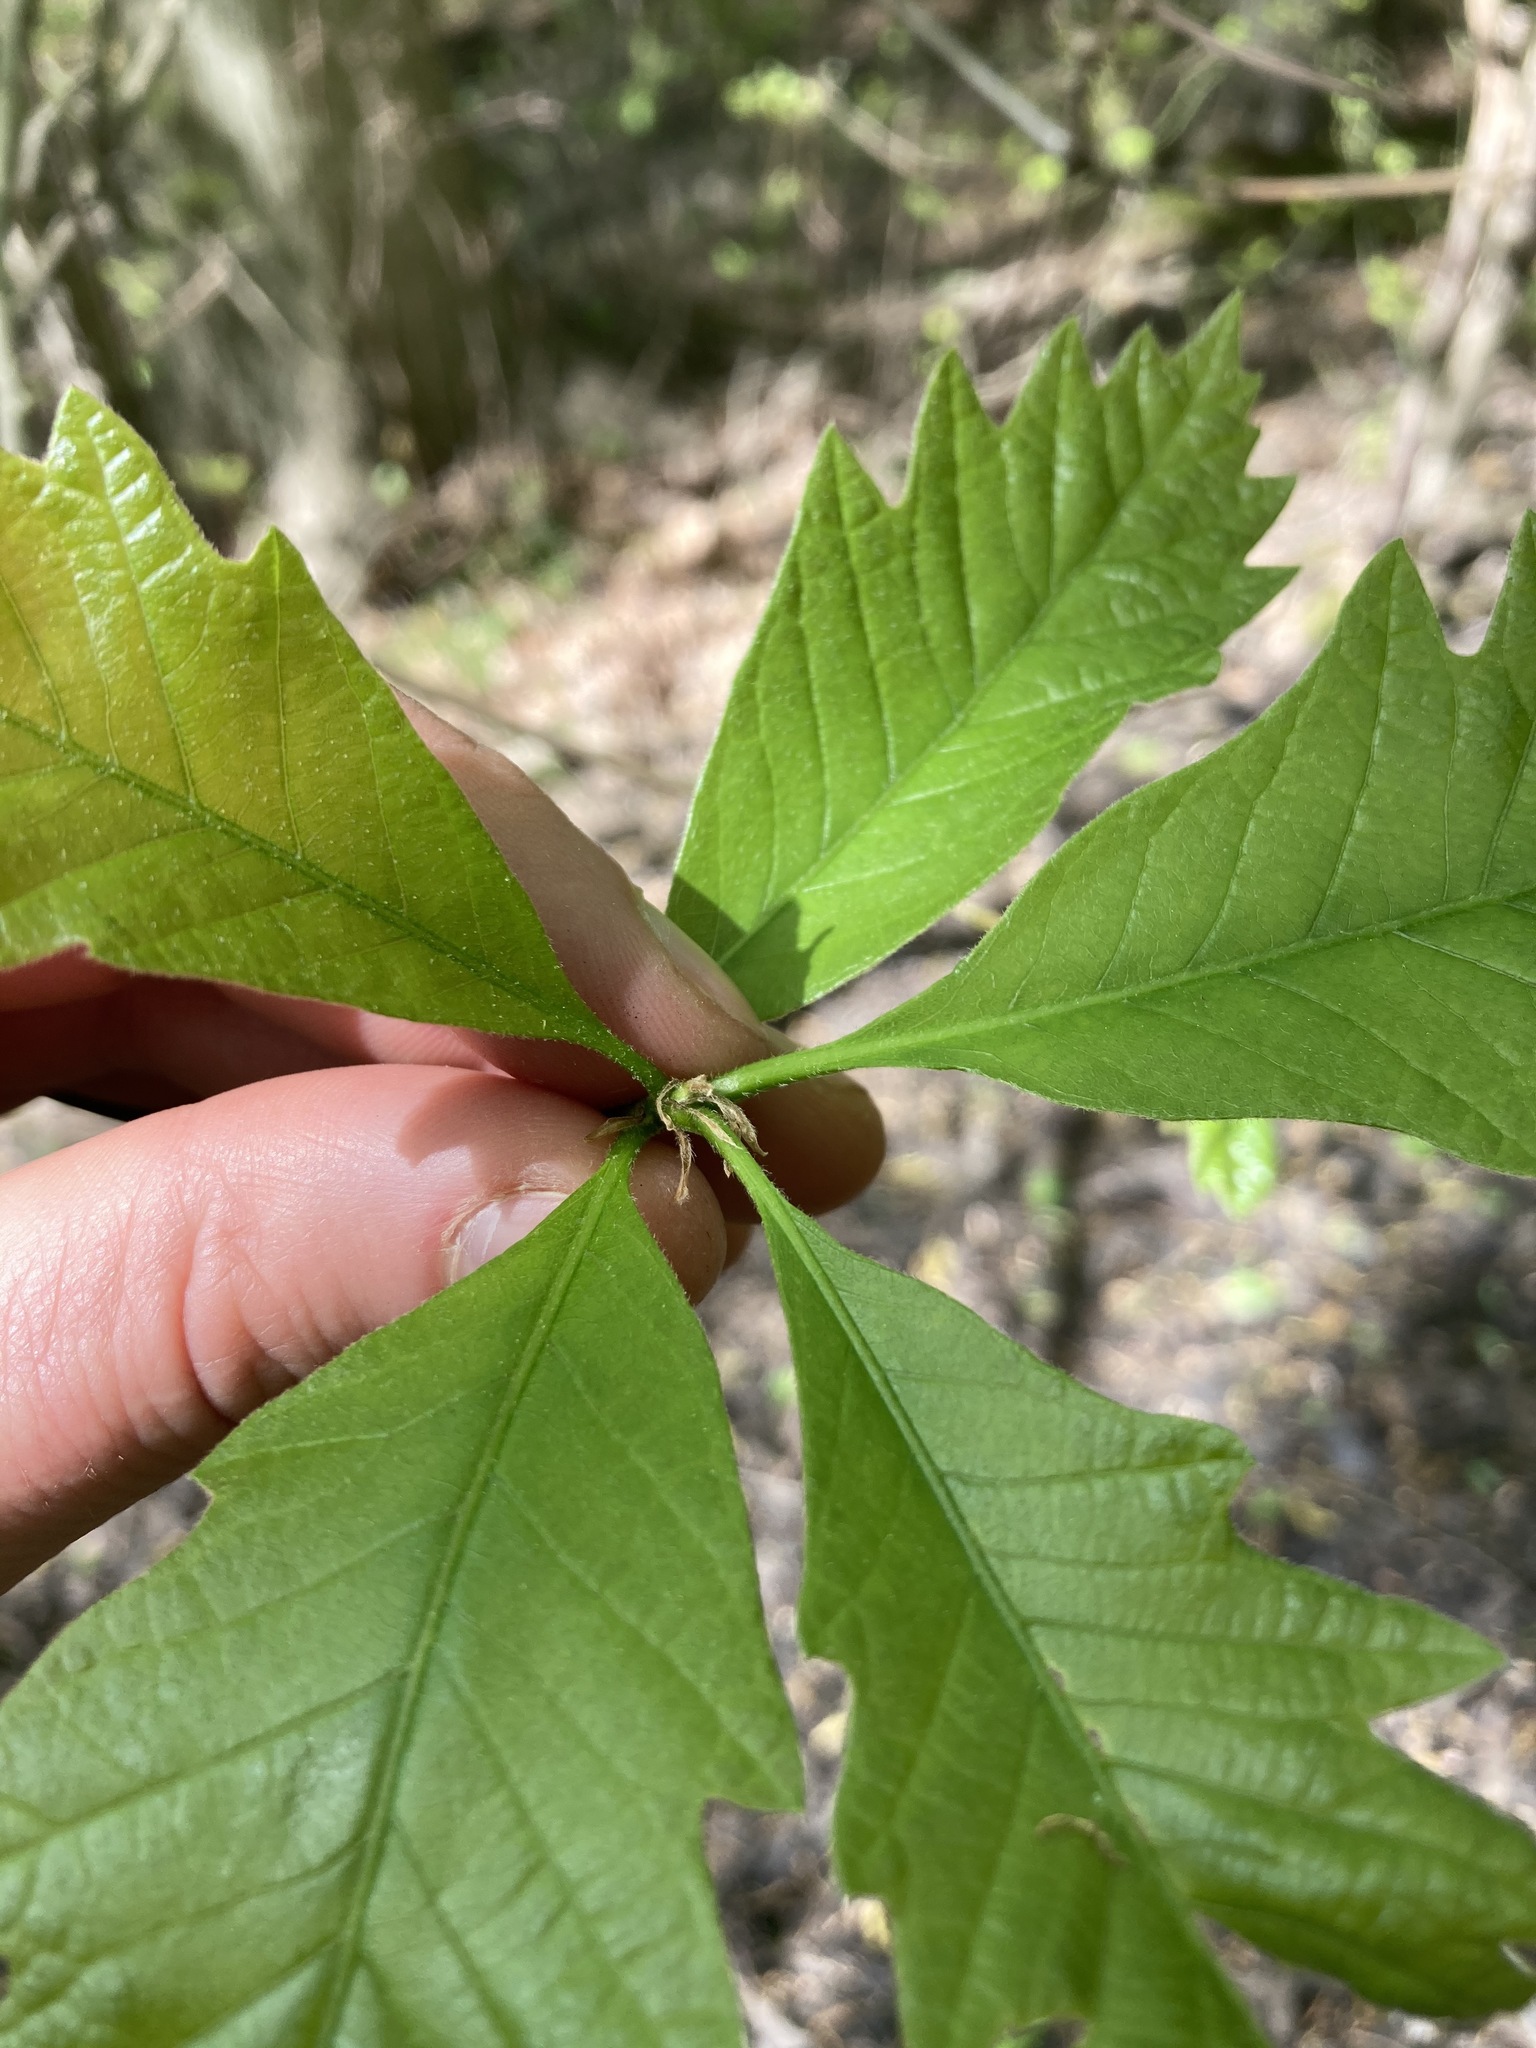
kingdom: Plantae
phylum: Tracheophyta
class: Magnoliopsida
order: Fagales
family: Fagaceae
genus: Quercus
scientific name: Quercus bicolor
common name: Swamp white oak
